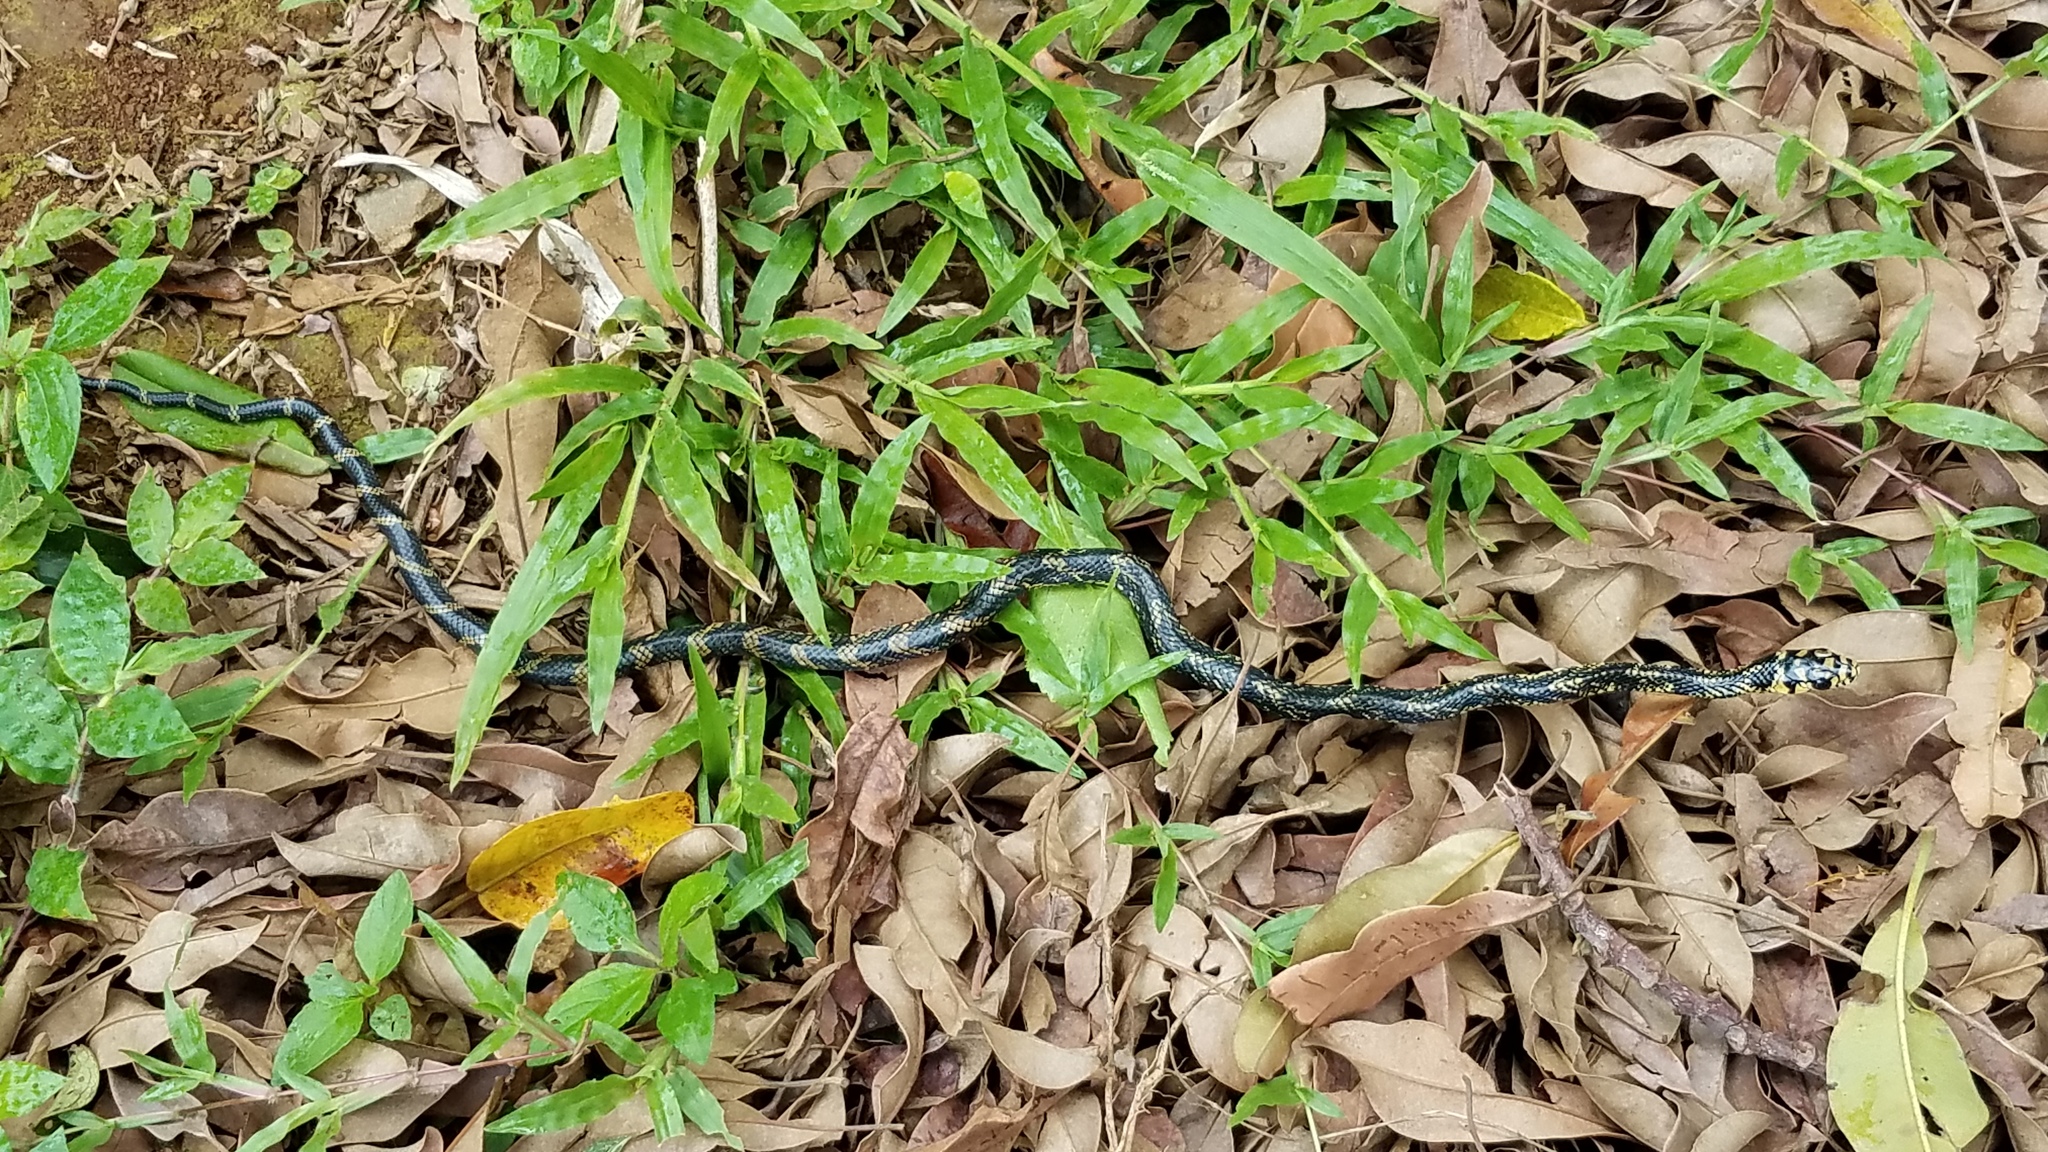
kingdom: Animalia
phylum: Chordata
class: Squamata
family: Colubridae
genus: Spilotes
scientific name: Spilotes pullatus
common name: Chicken snake
